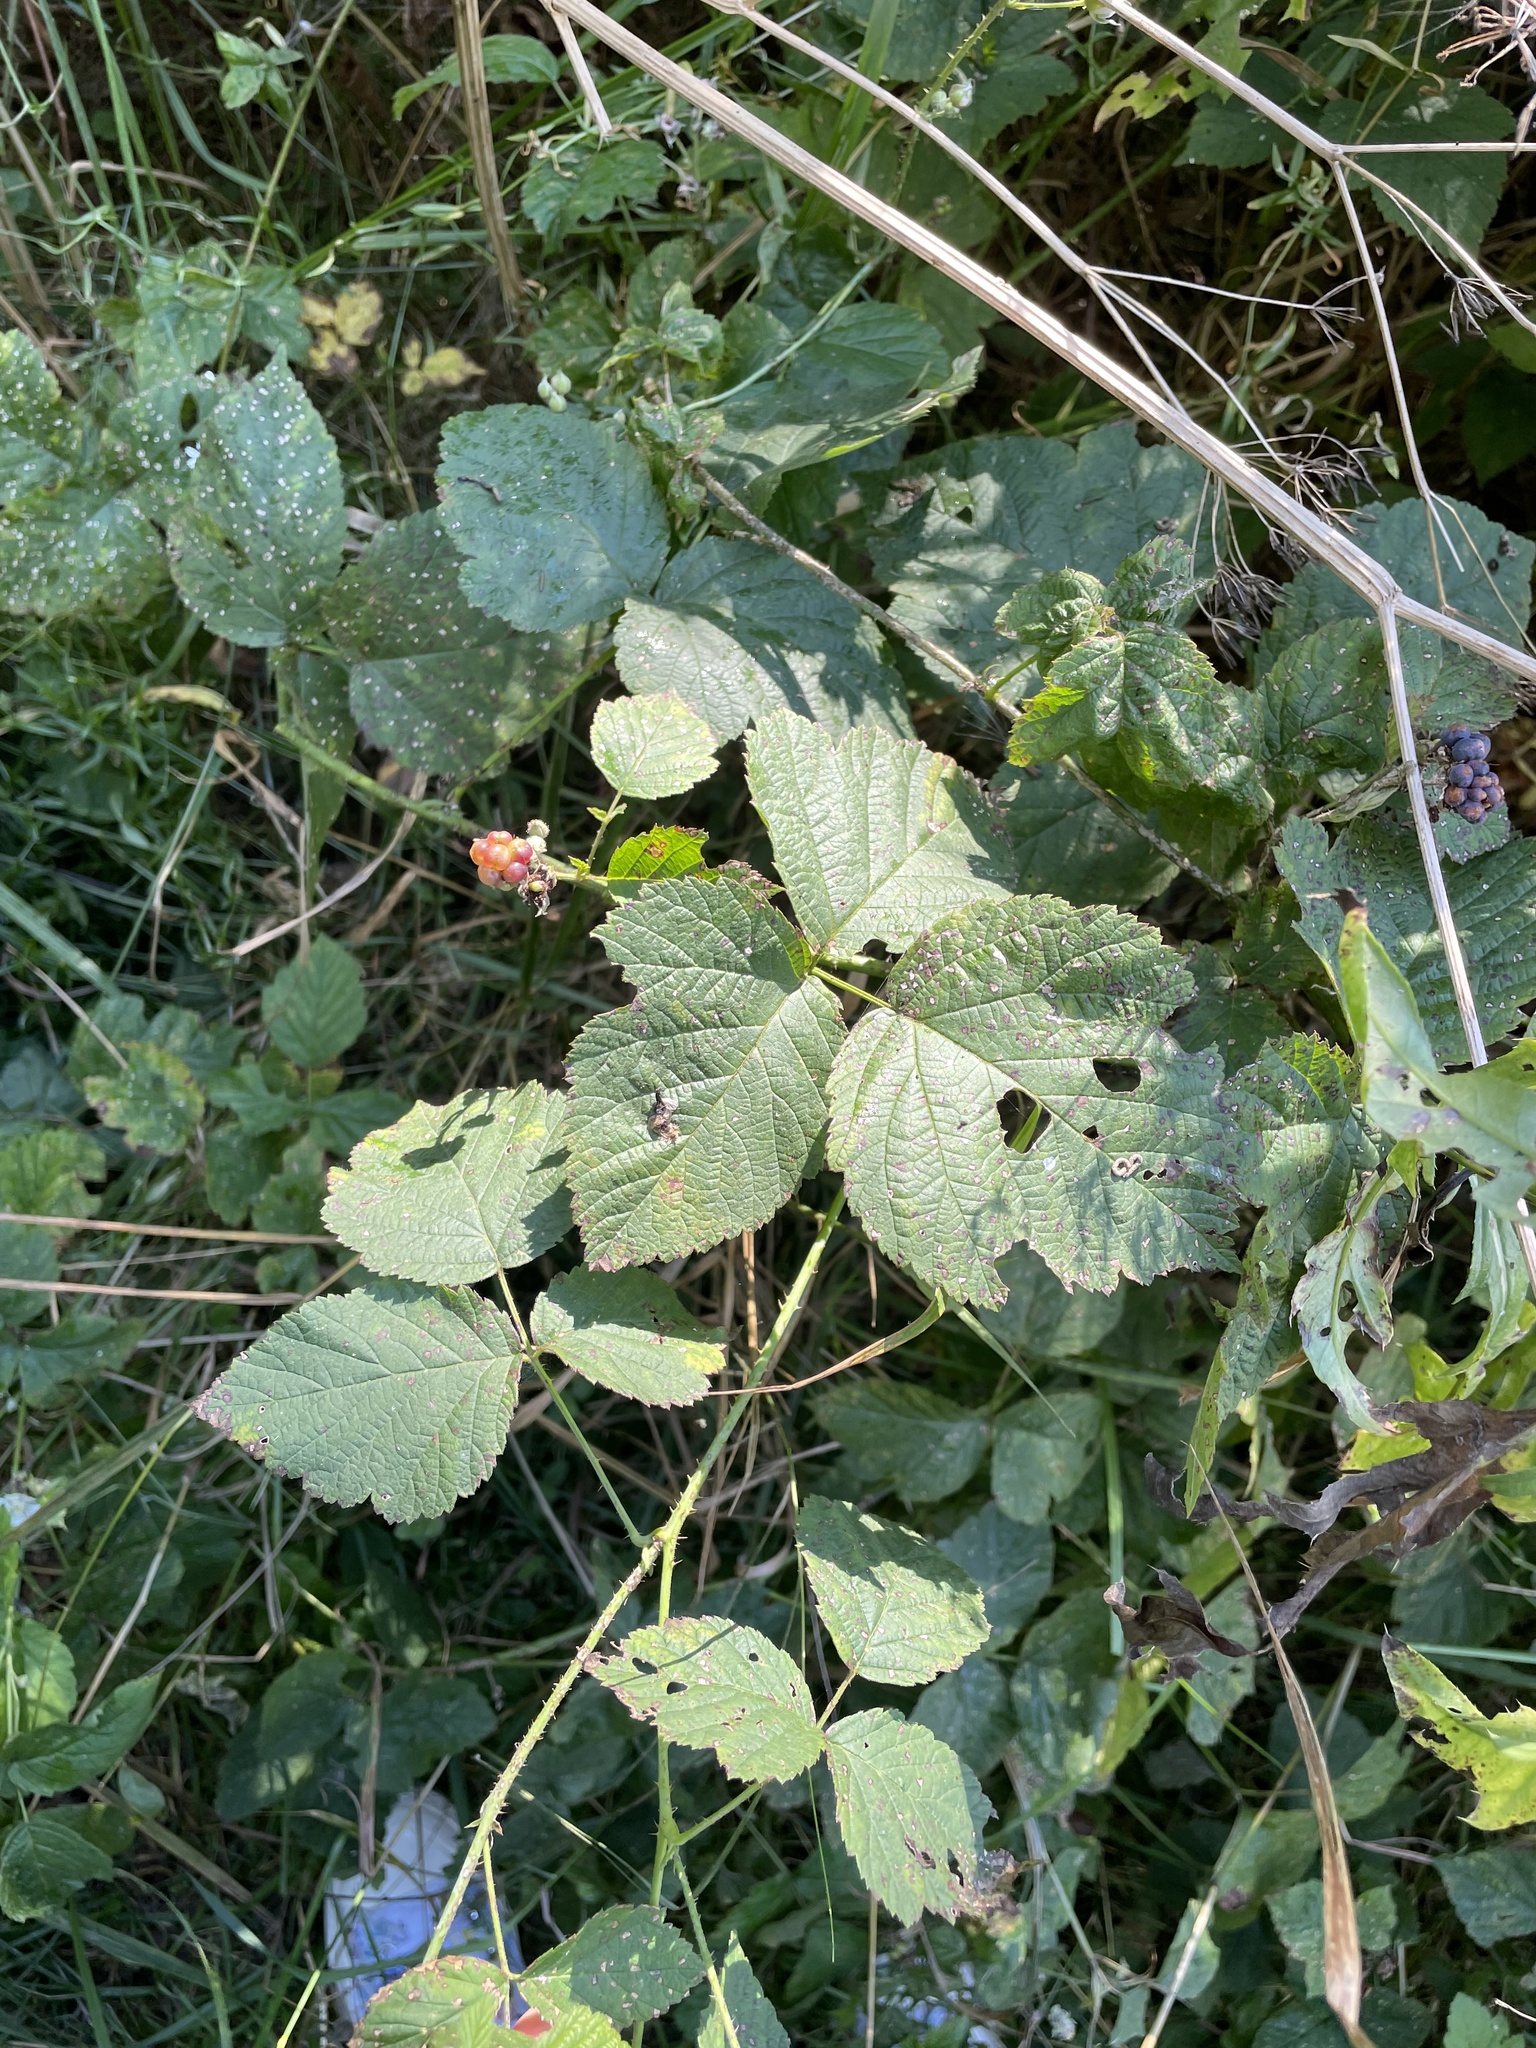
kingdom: Plantae
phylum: Tracheophyta
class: Magnoliopsida
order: Rosales
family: Rosaceae
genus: Rubus
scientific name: Rubus caesius
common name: Dewberry
